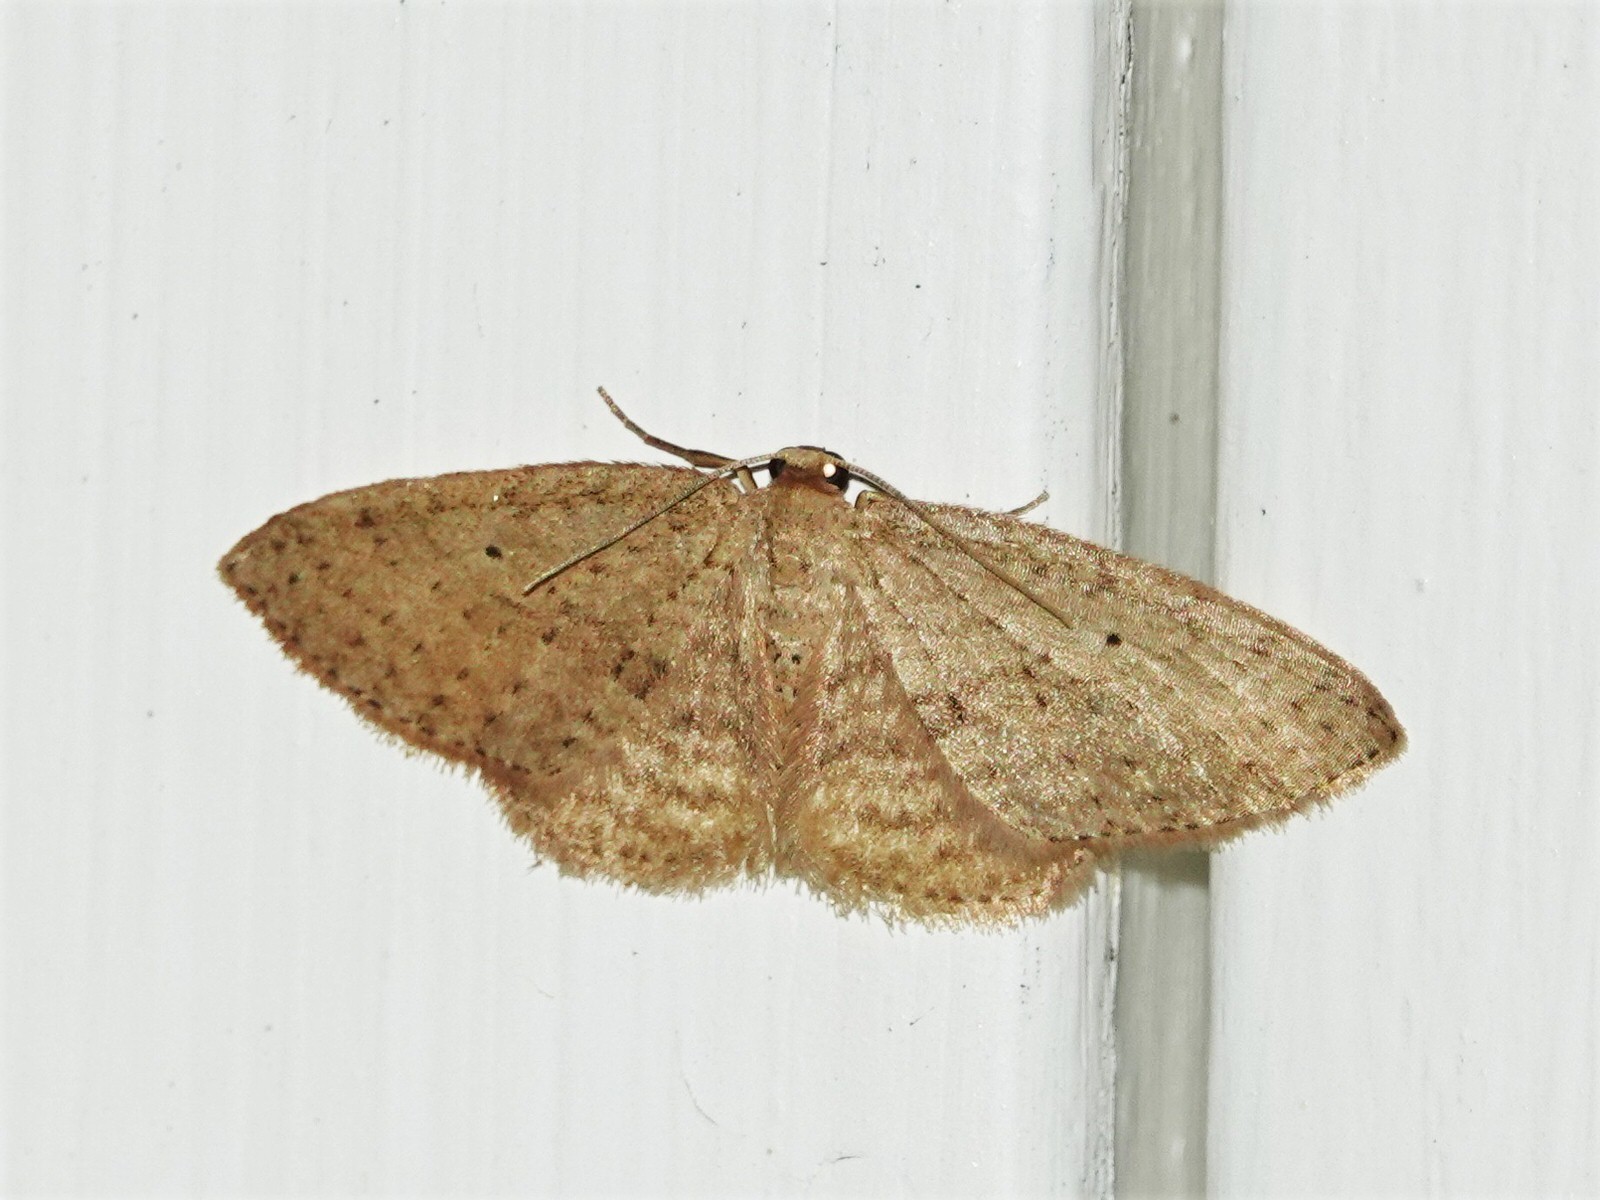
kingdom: Animalia
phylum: Arthropoda
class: Insecta
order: Lepidoptera
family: Geometridae
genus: Poecilasthena
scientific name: Poecilasthena schistaria
